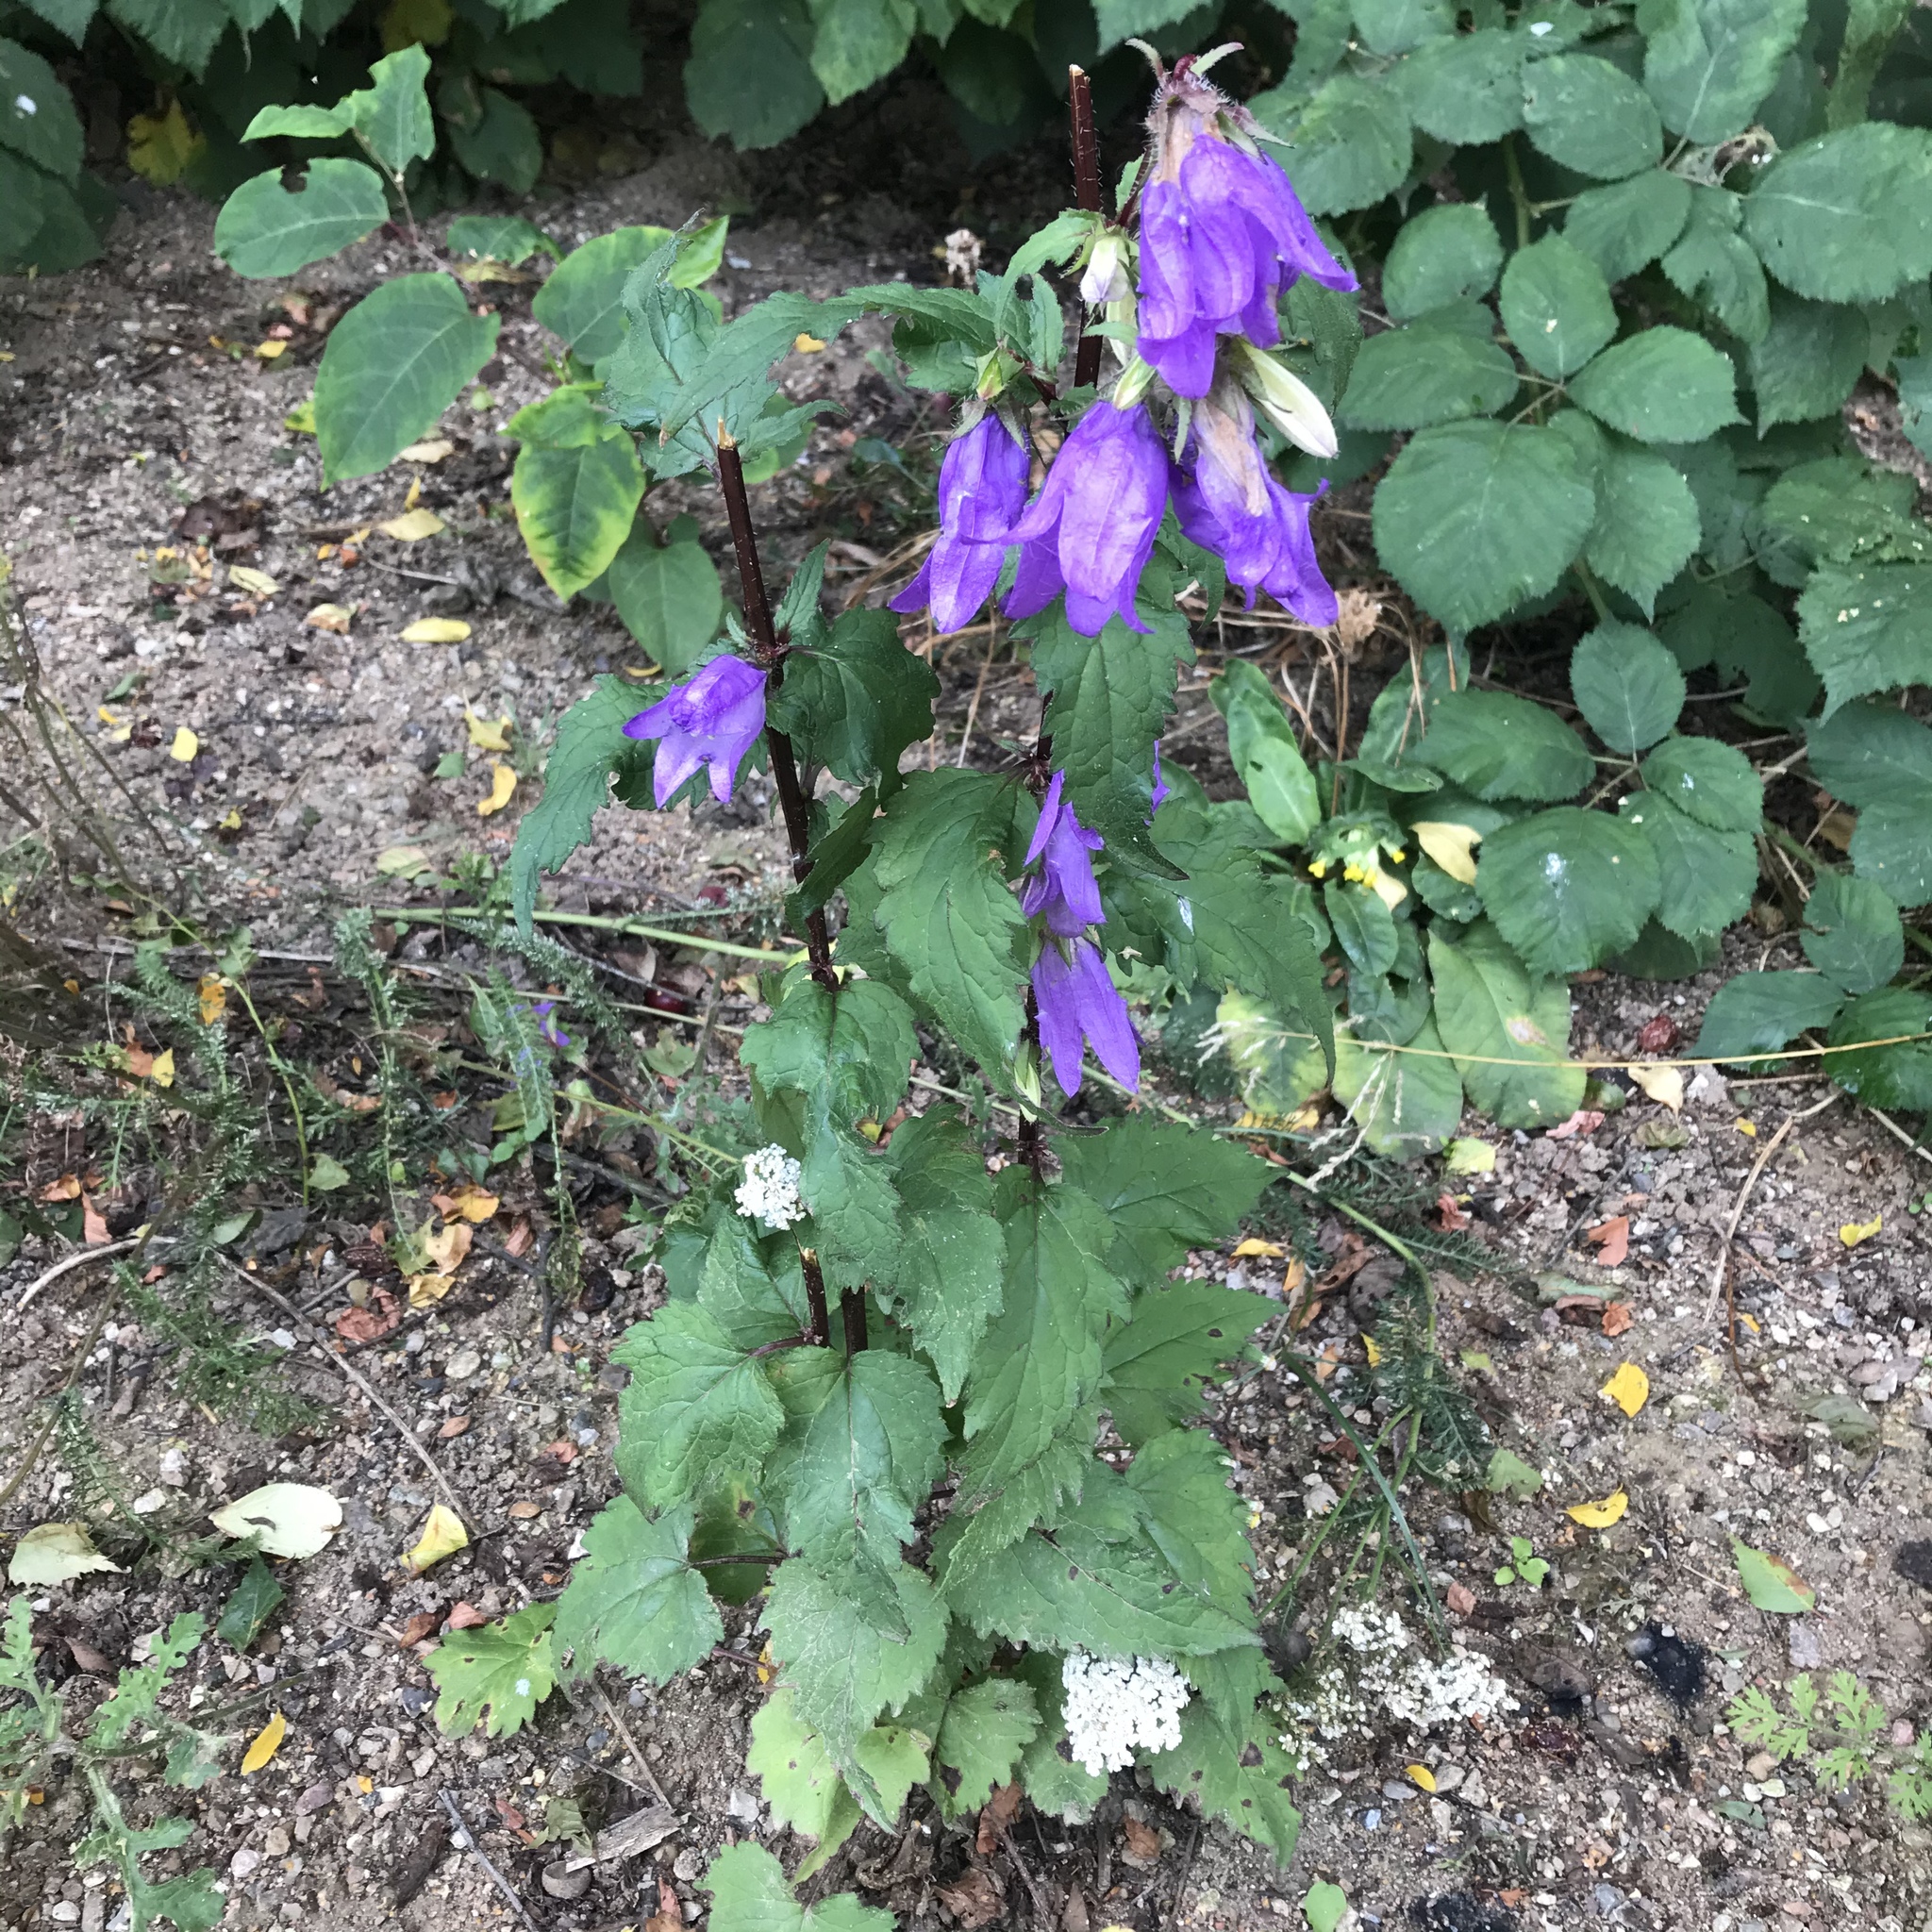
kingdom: Plantae
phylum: Tracheophyta
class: Magnoliopsida
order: Asterales
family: Campanulaceae
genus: Campanula
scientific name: Campanula trachelium
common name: Nettle-leaved bellflower
